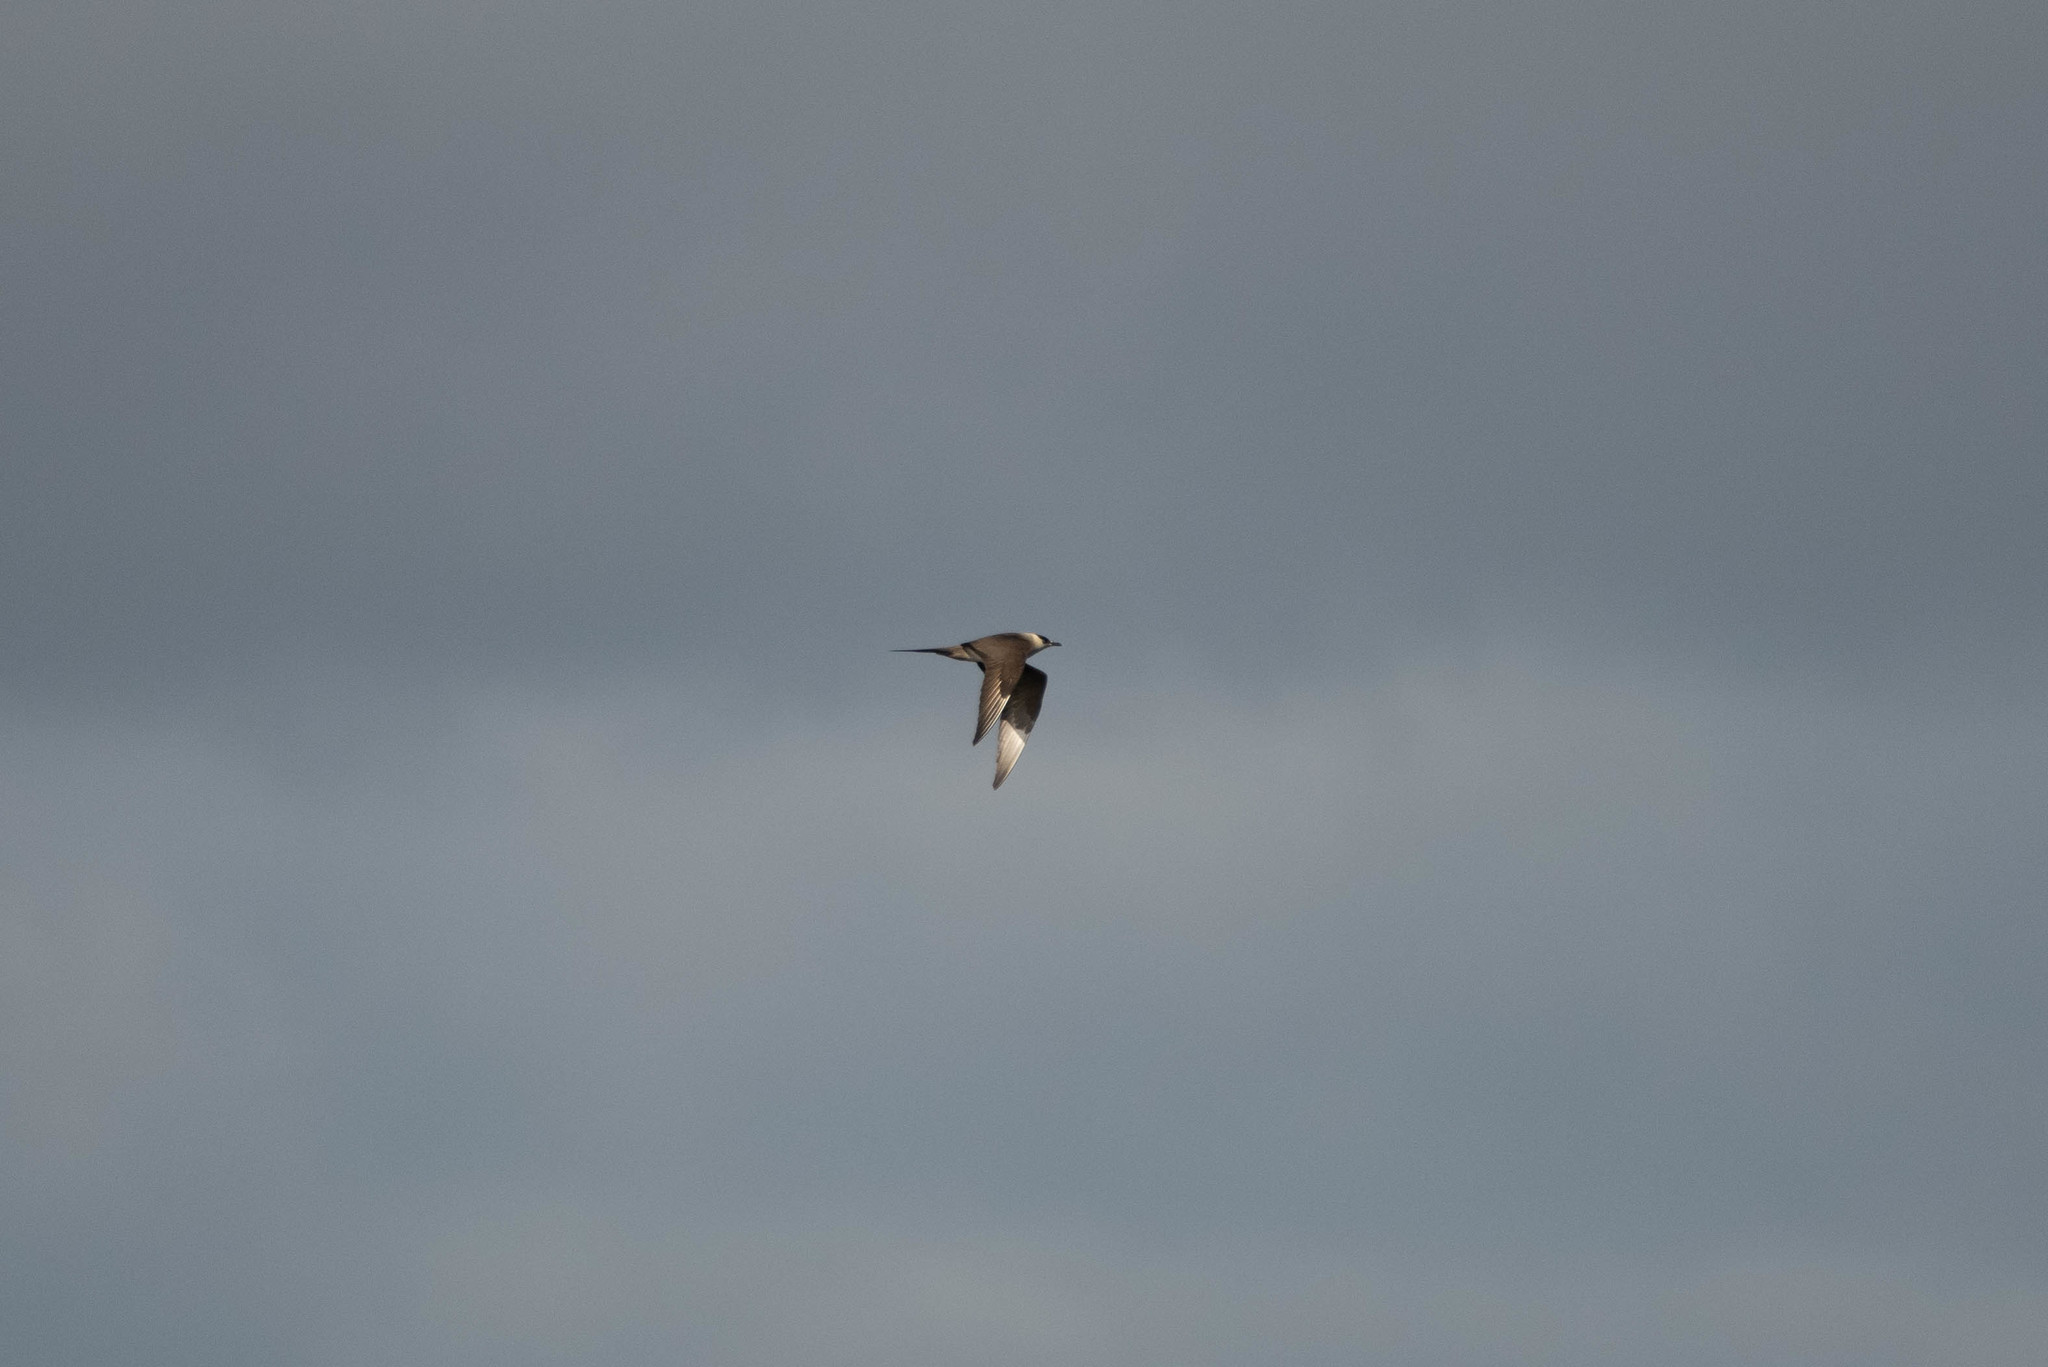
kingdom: Animalia
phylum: Chordata
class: Aves
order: Charadriiformes
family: Stercorariidae
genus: Stercorarius
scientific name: Stercorarius parasiticus
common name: Parasitic jaeger
